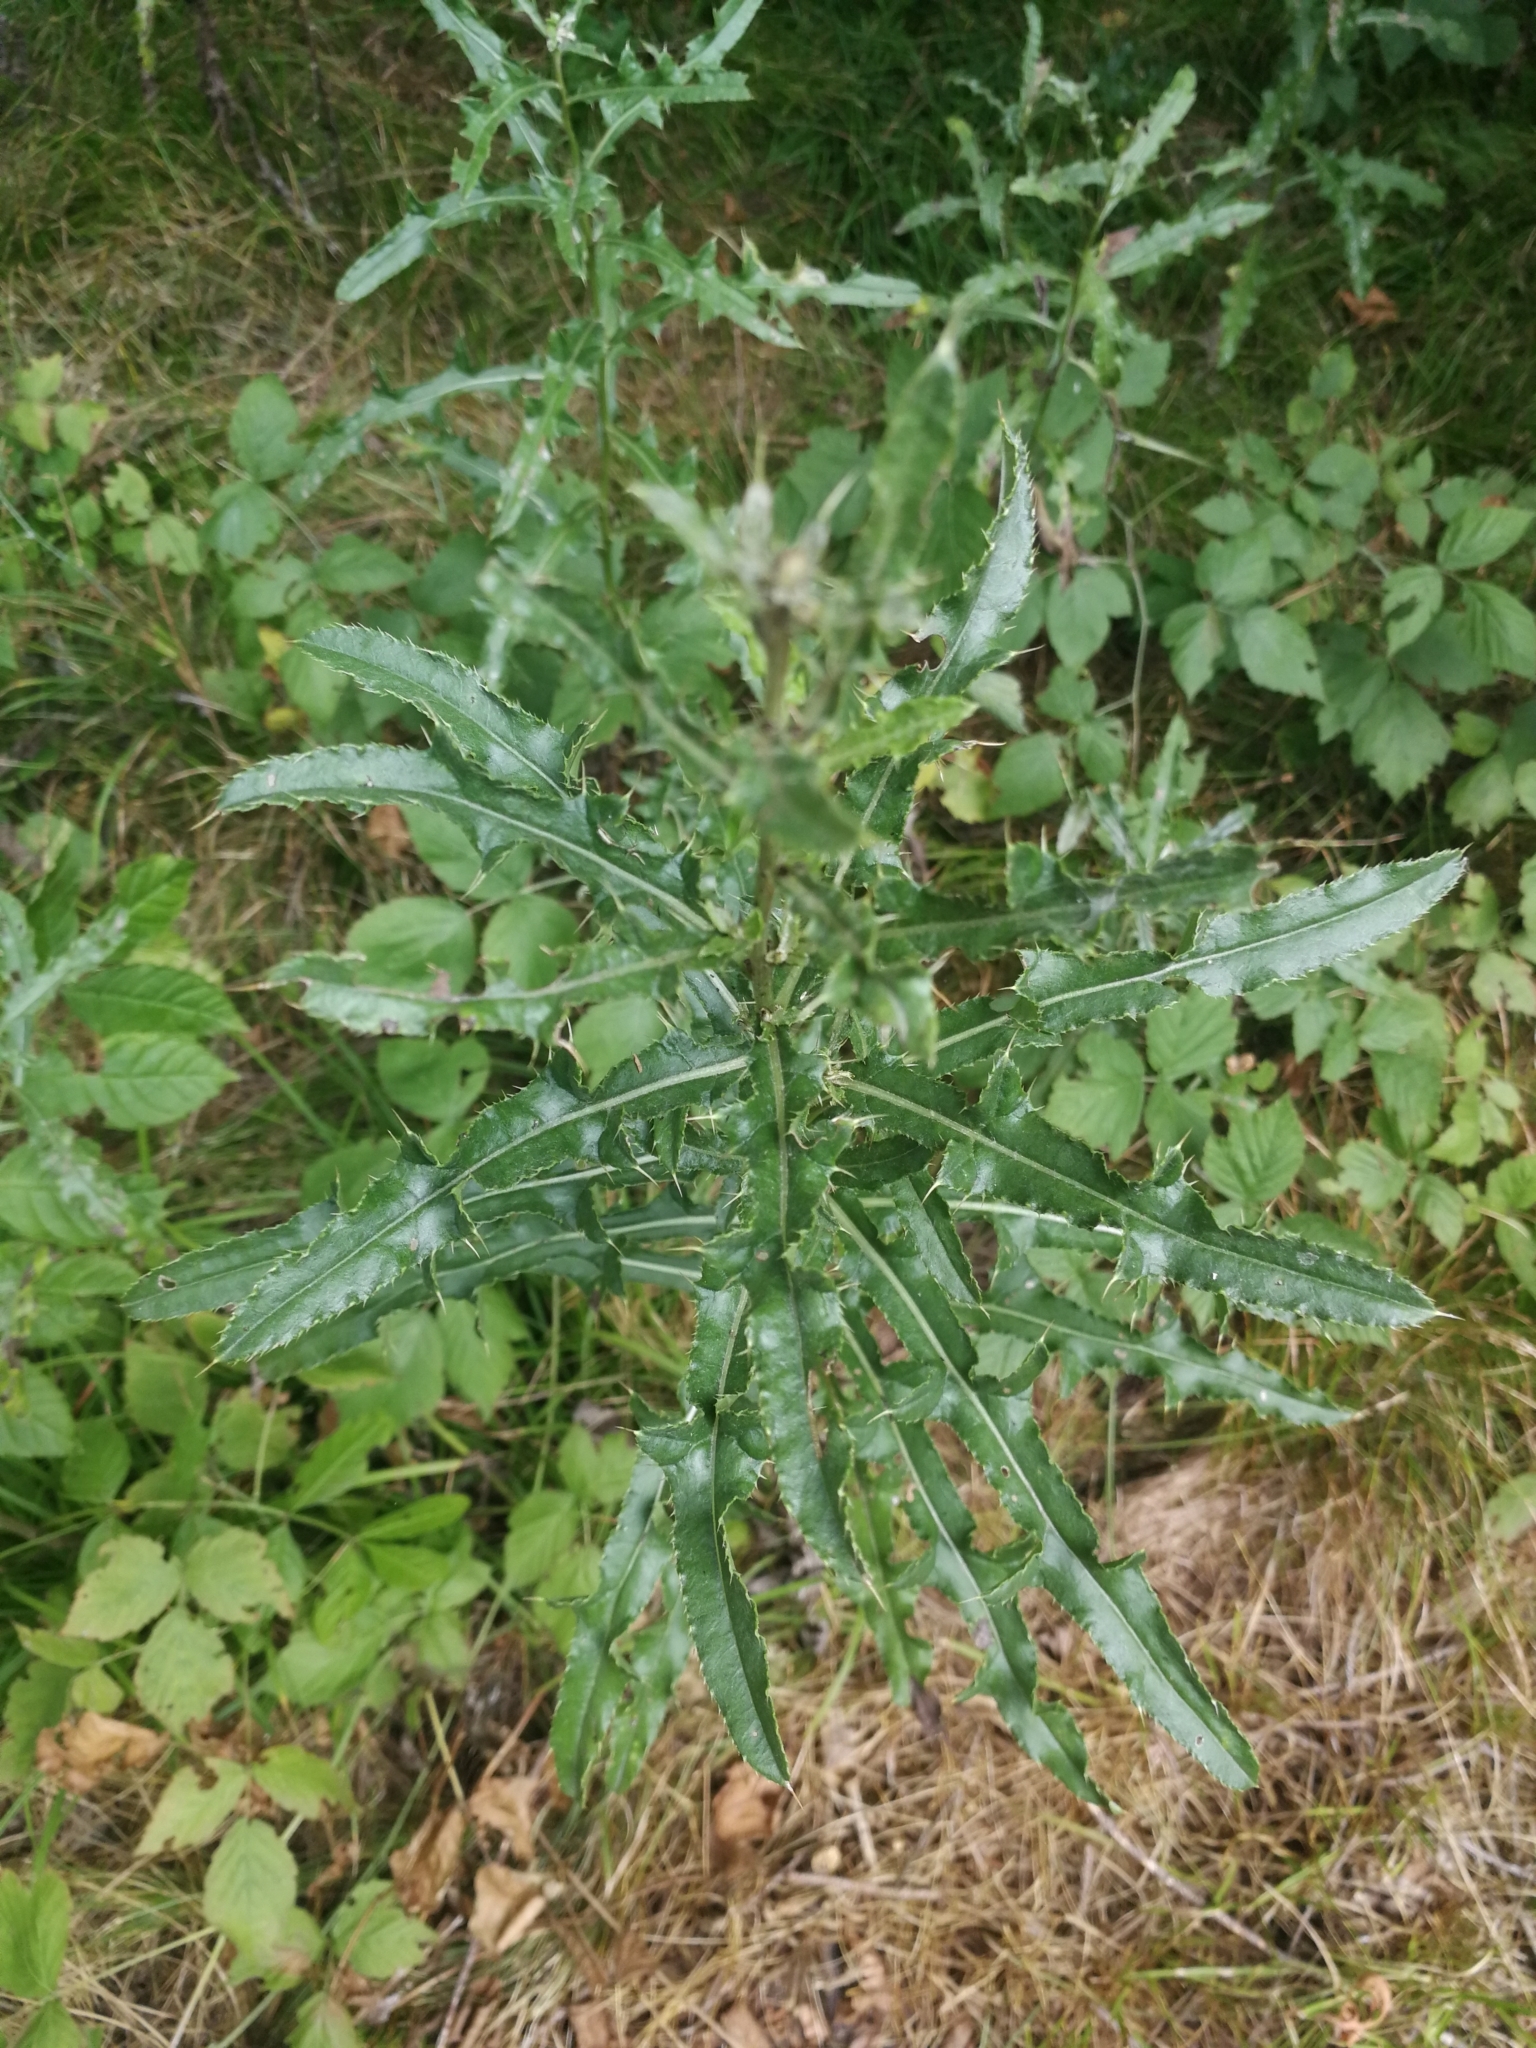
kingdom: Plantae
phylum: Tracheophyta
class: Magnoliopsida
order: Asterales
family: Asteraceae
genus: Cirsium
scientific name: Cirsium arvense
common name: Creeping thistle
